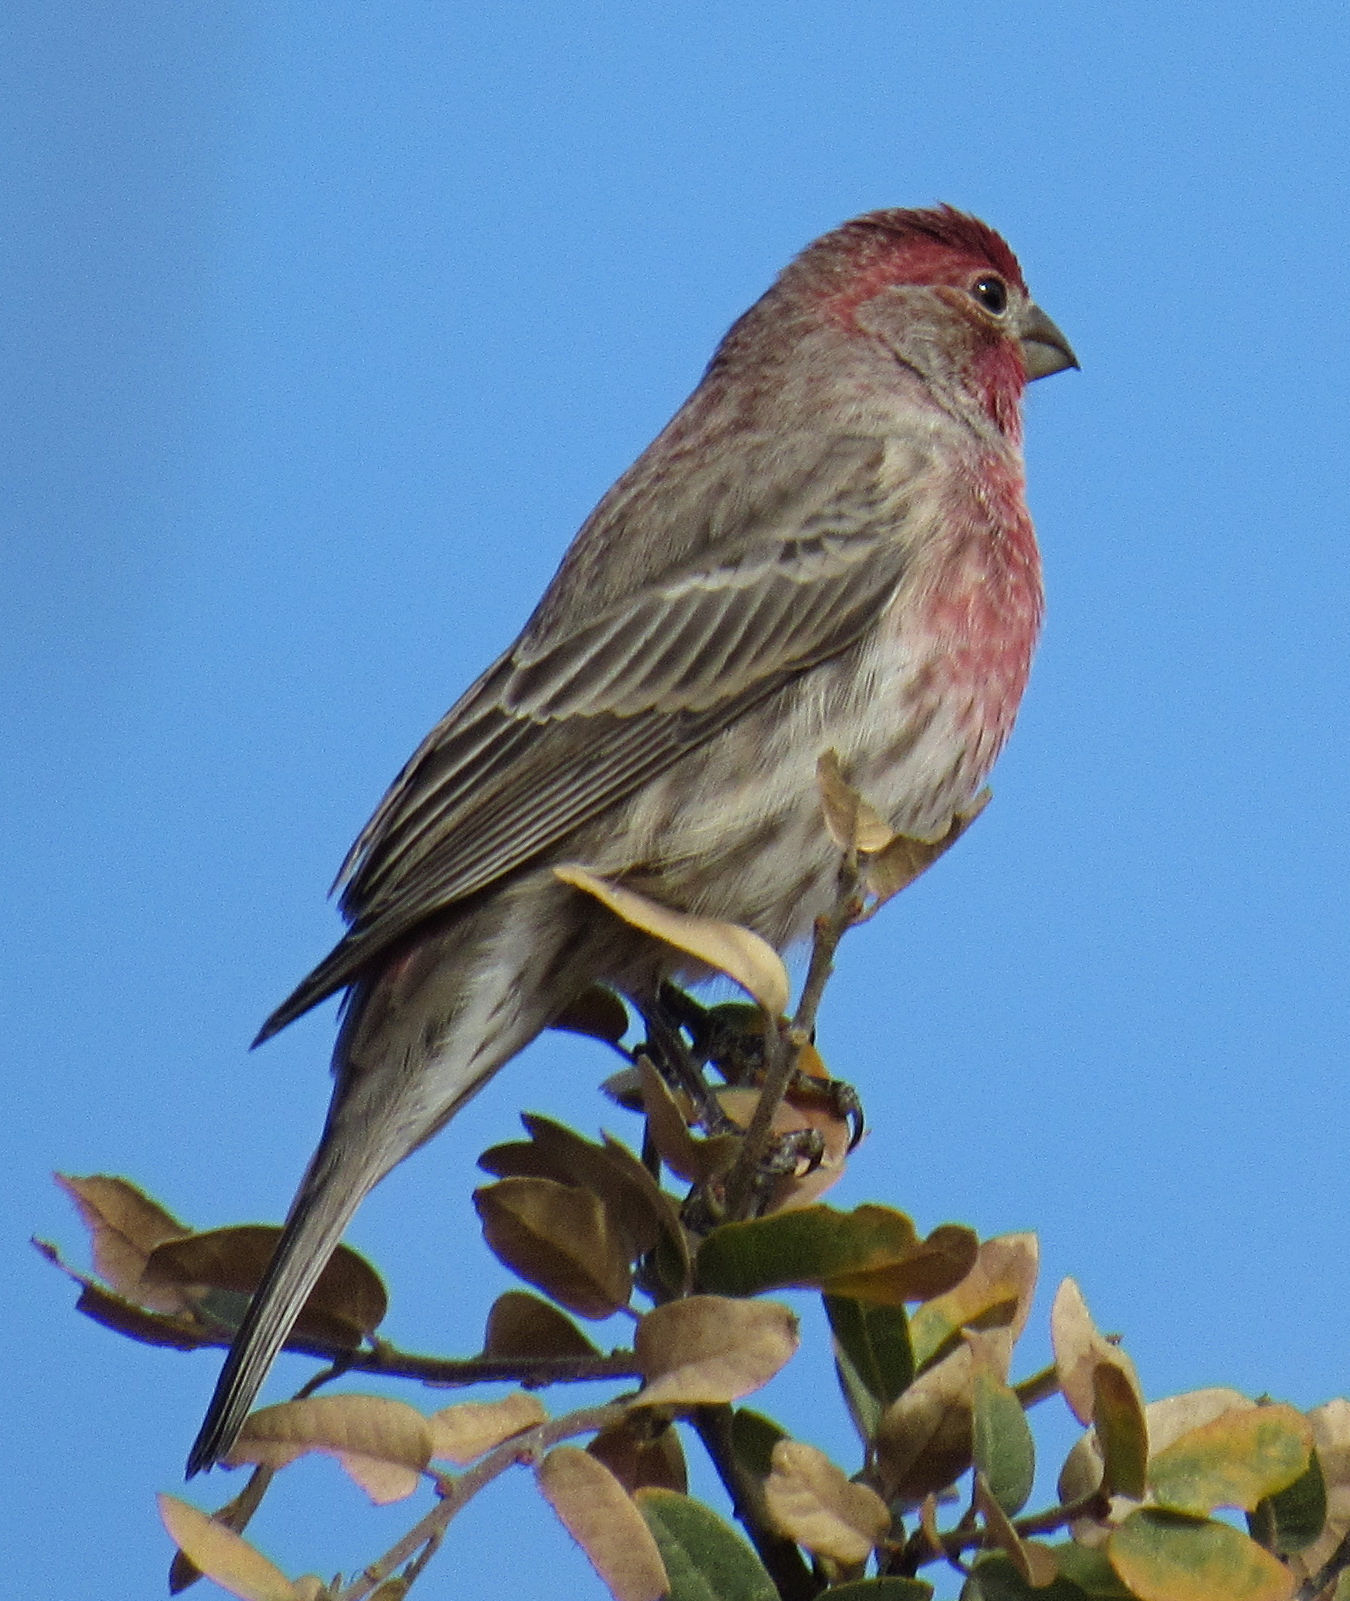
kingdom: Animalia
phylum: Chordata
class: Aves
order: Passeriformes
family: Fringillidae
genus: Haemorhous
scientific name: Haemorhous mexicanus
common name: House finch
